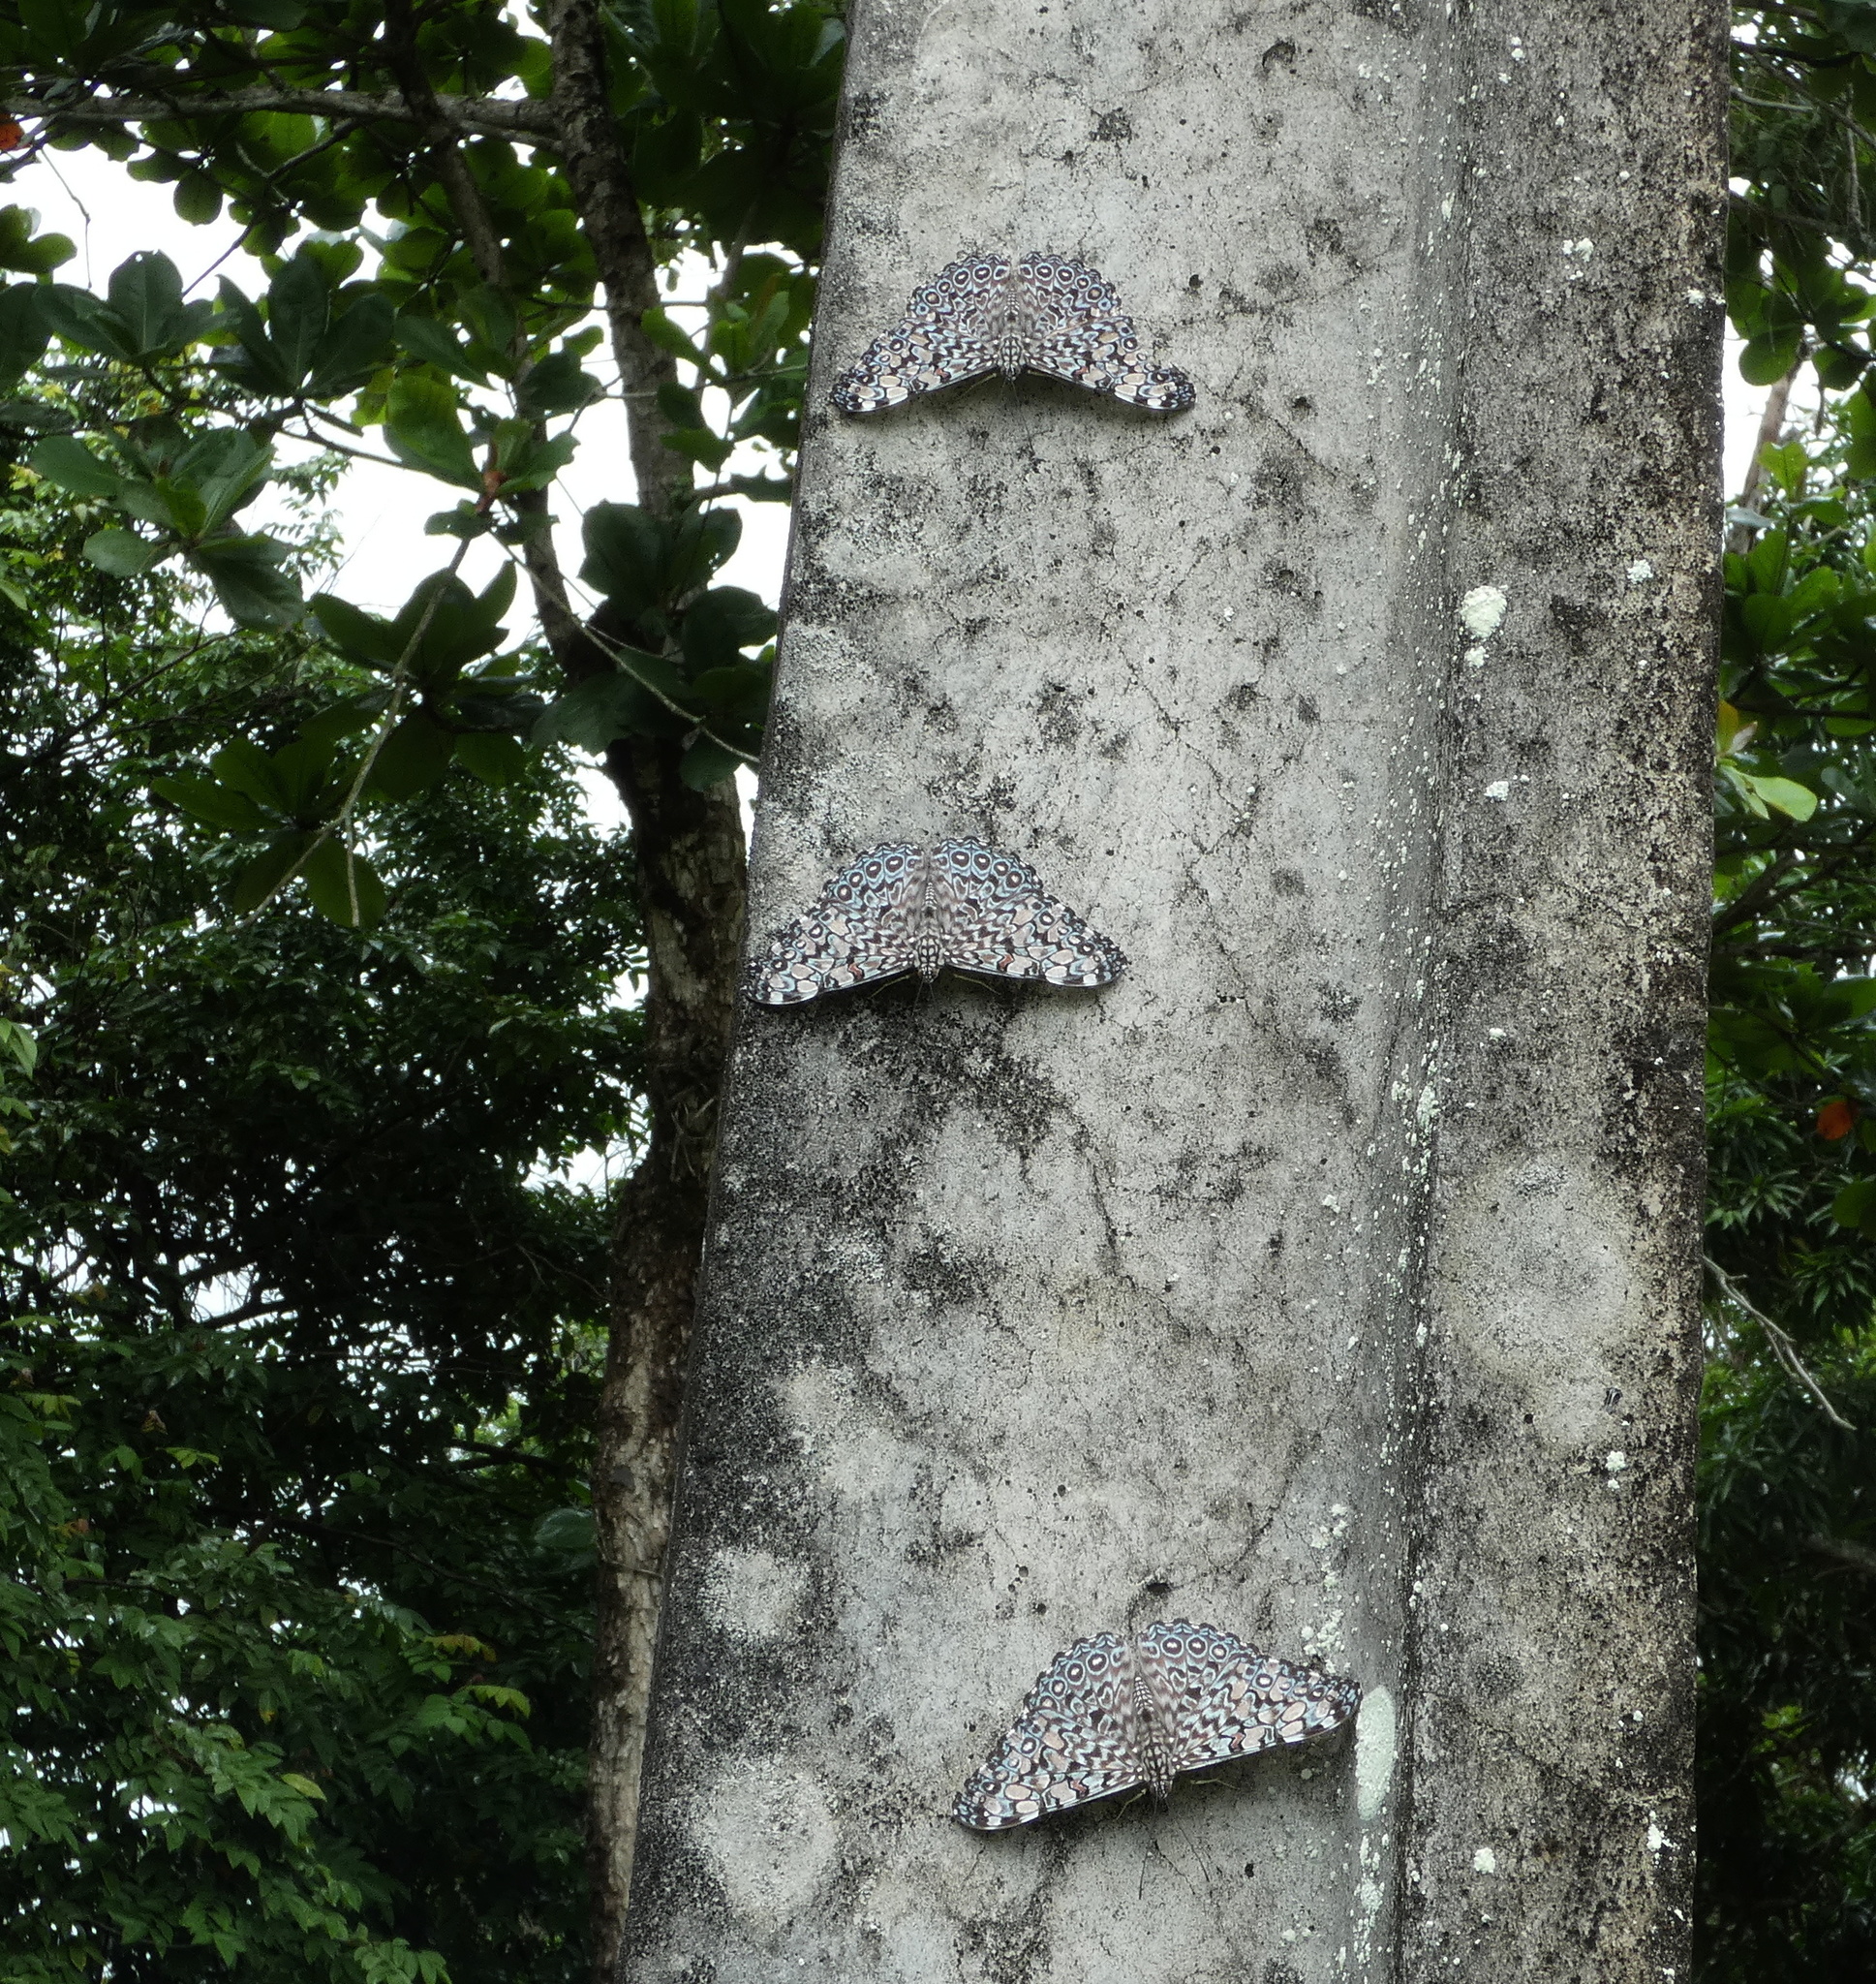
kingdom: Animalia
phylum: Arthropoda
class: Insecta
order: Lepidoptera
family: Nymphalidae
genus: Hamadryas
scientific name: Hamadryas feronia
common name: Variable cracker
